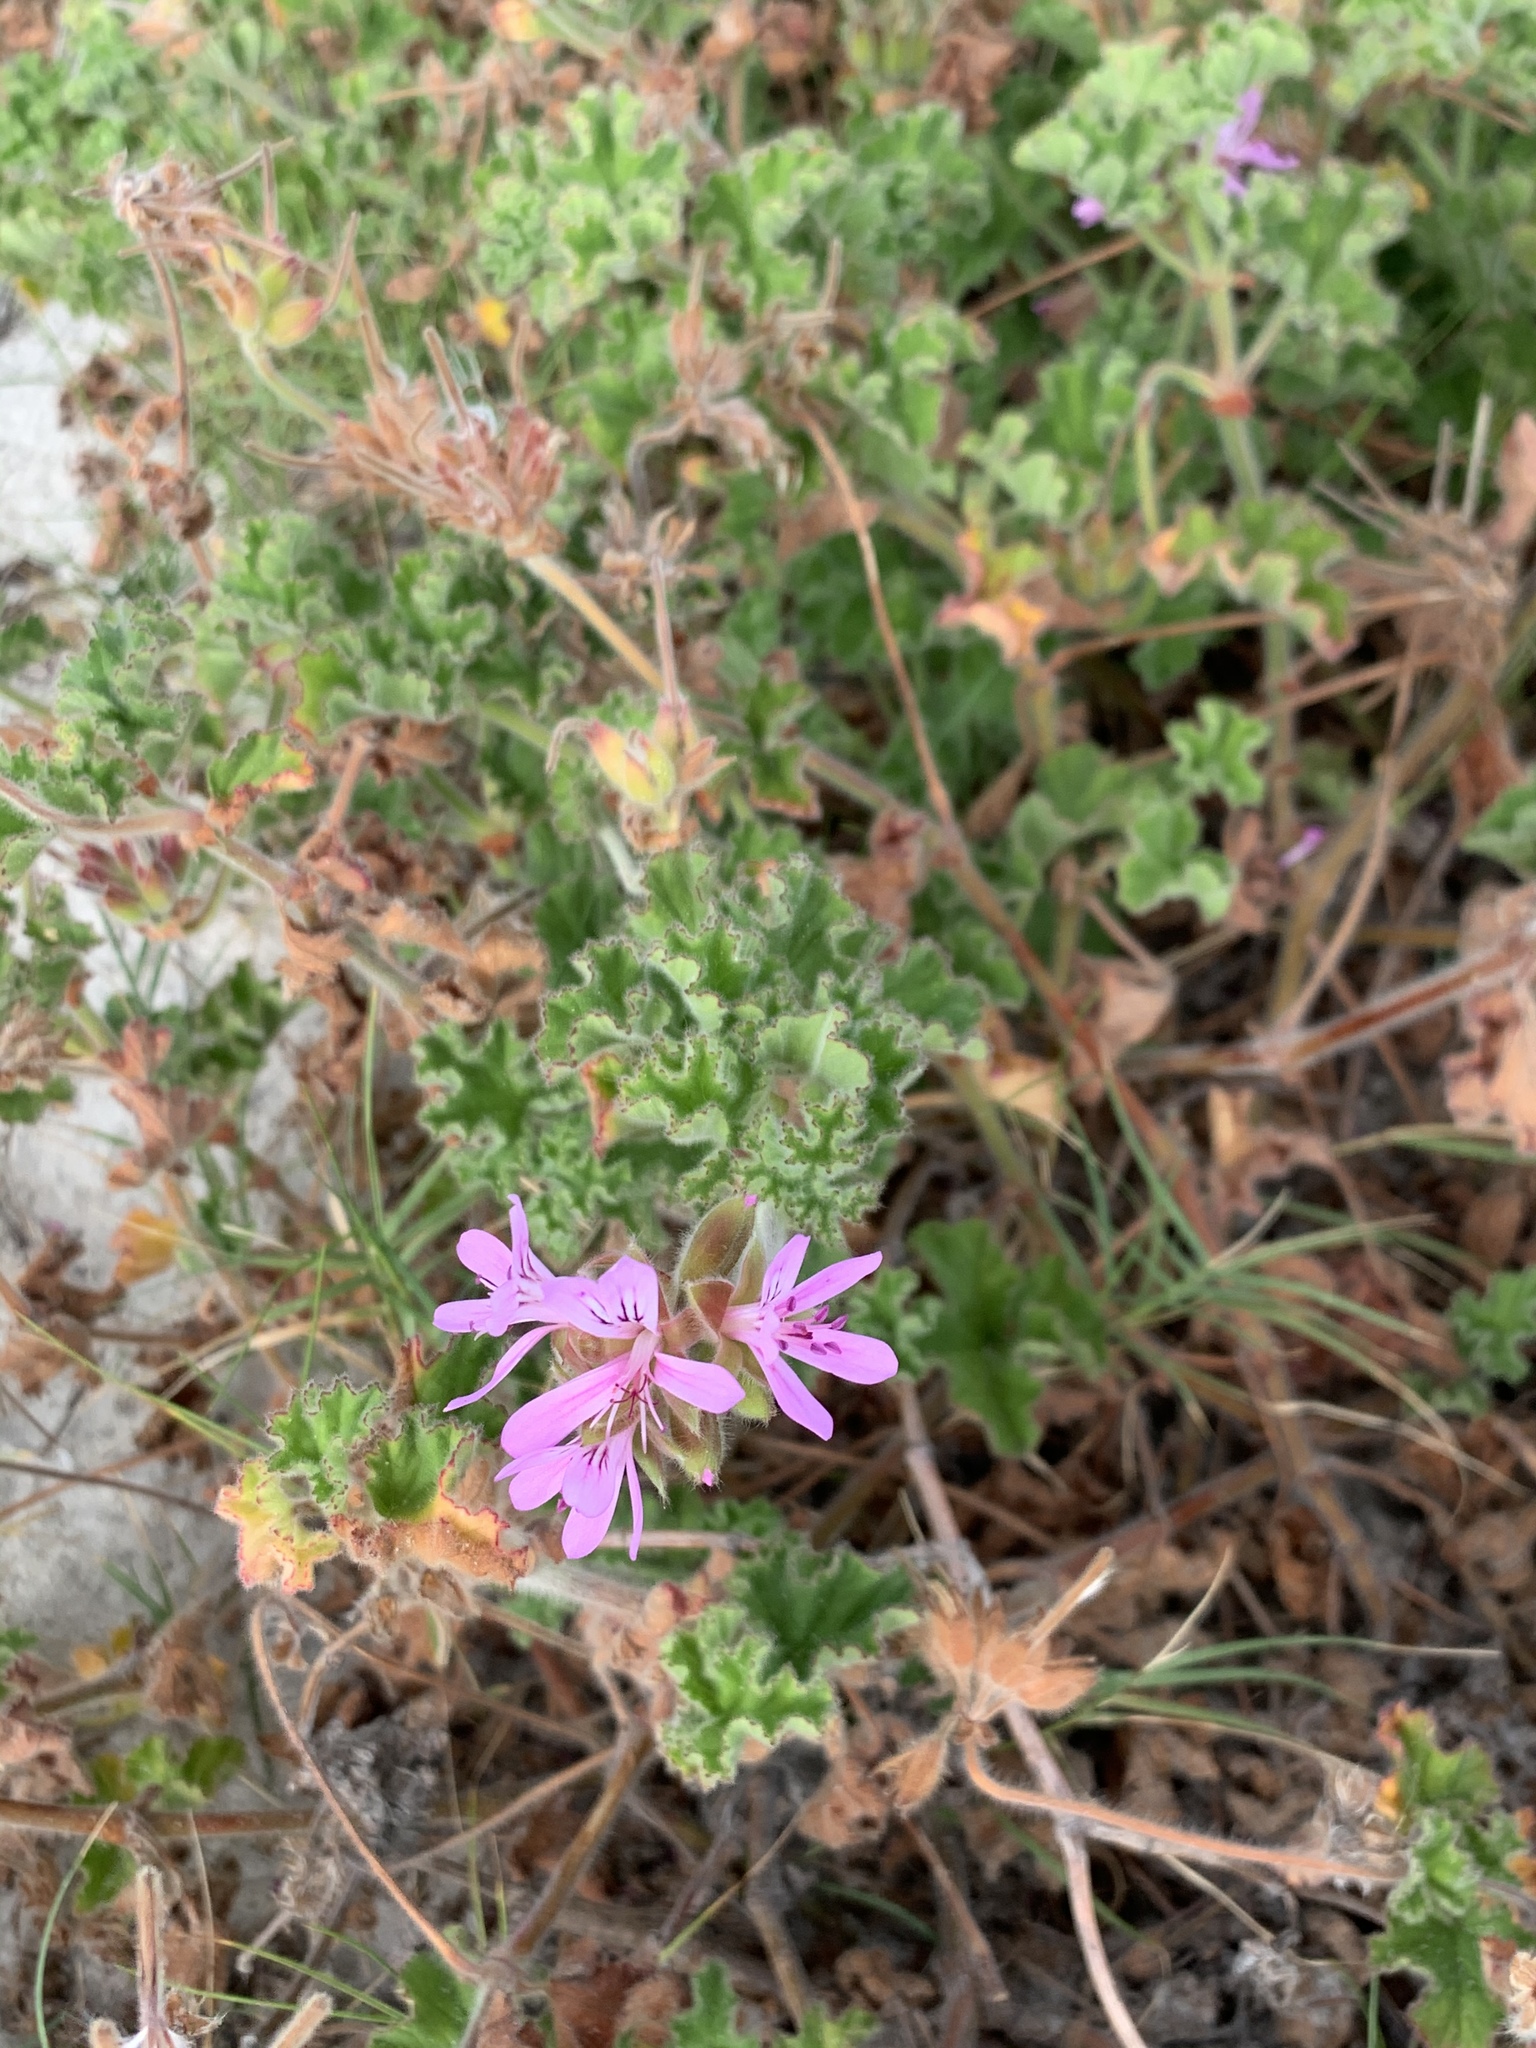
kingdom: Plantae
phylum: Tracheophyta
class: Magnoliopsida
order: Geraniales
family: Geraniaceae
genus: Pelargonium
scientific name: Pelargonium capitatum
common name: Rose scented geranium
